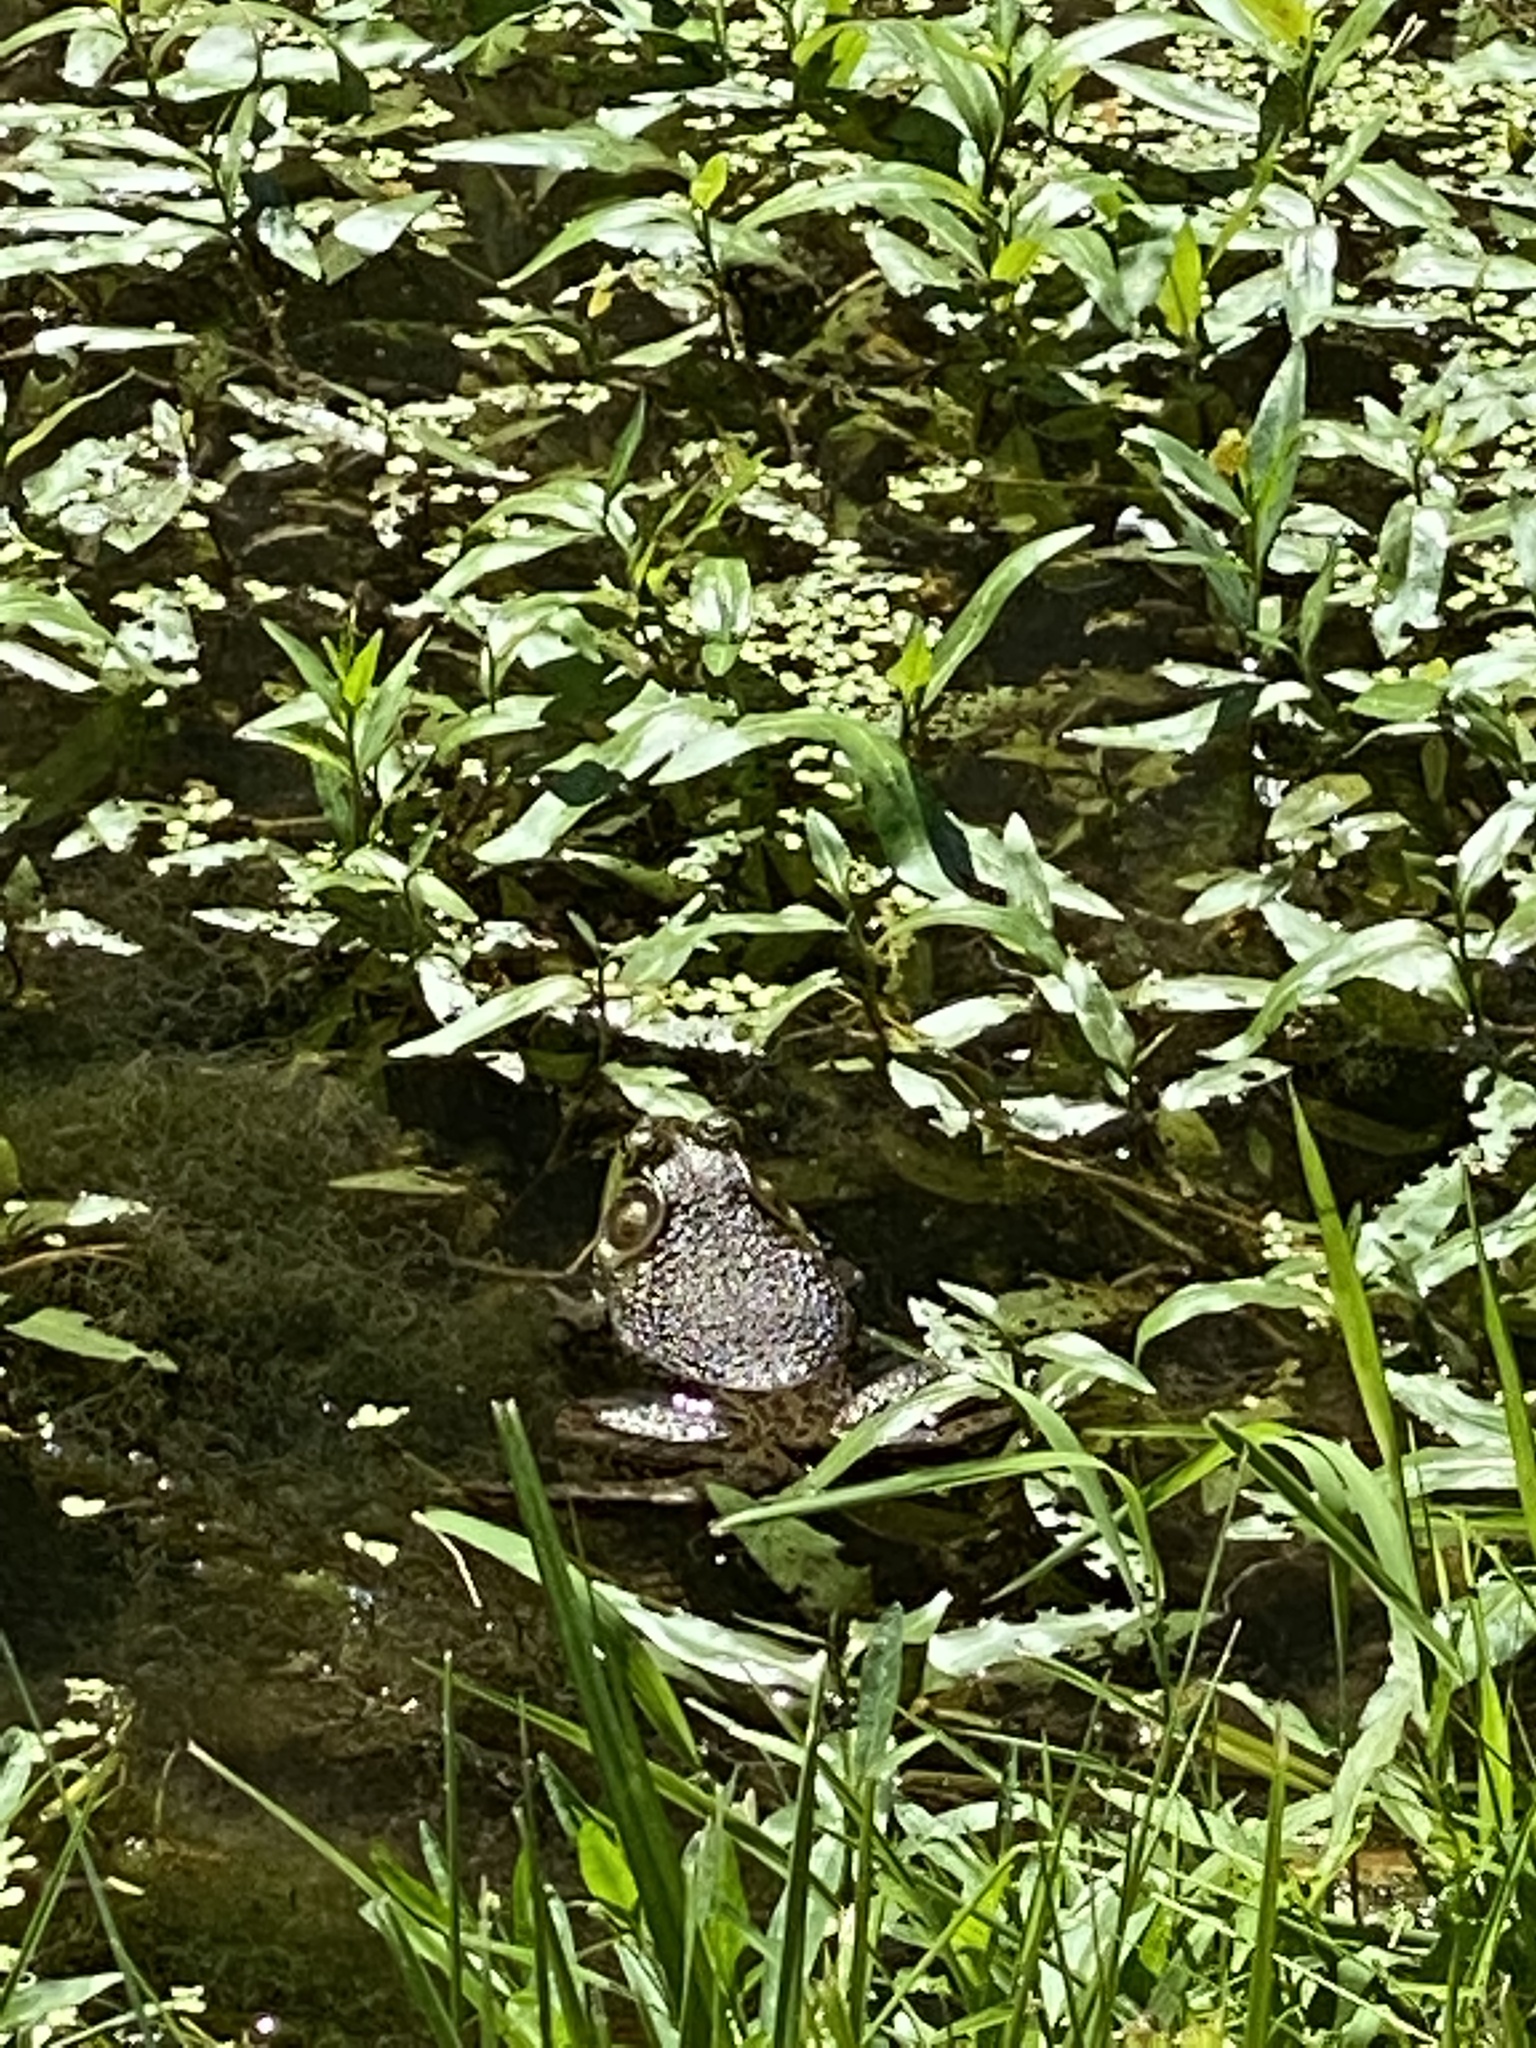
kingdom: Animalia
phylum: Chordata
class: Amphibia
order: Anura
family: Ranidae
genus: Lithobates
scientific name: Lithobates catesbeianus
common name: American bullfrog
